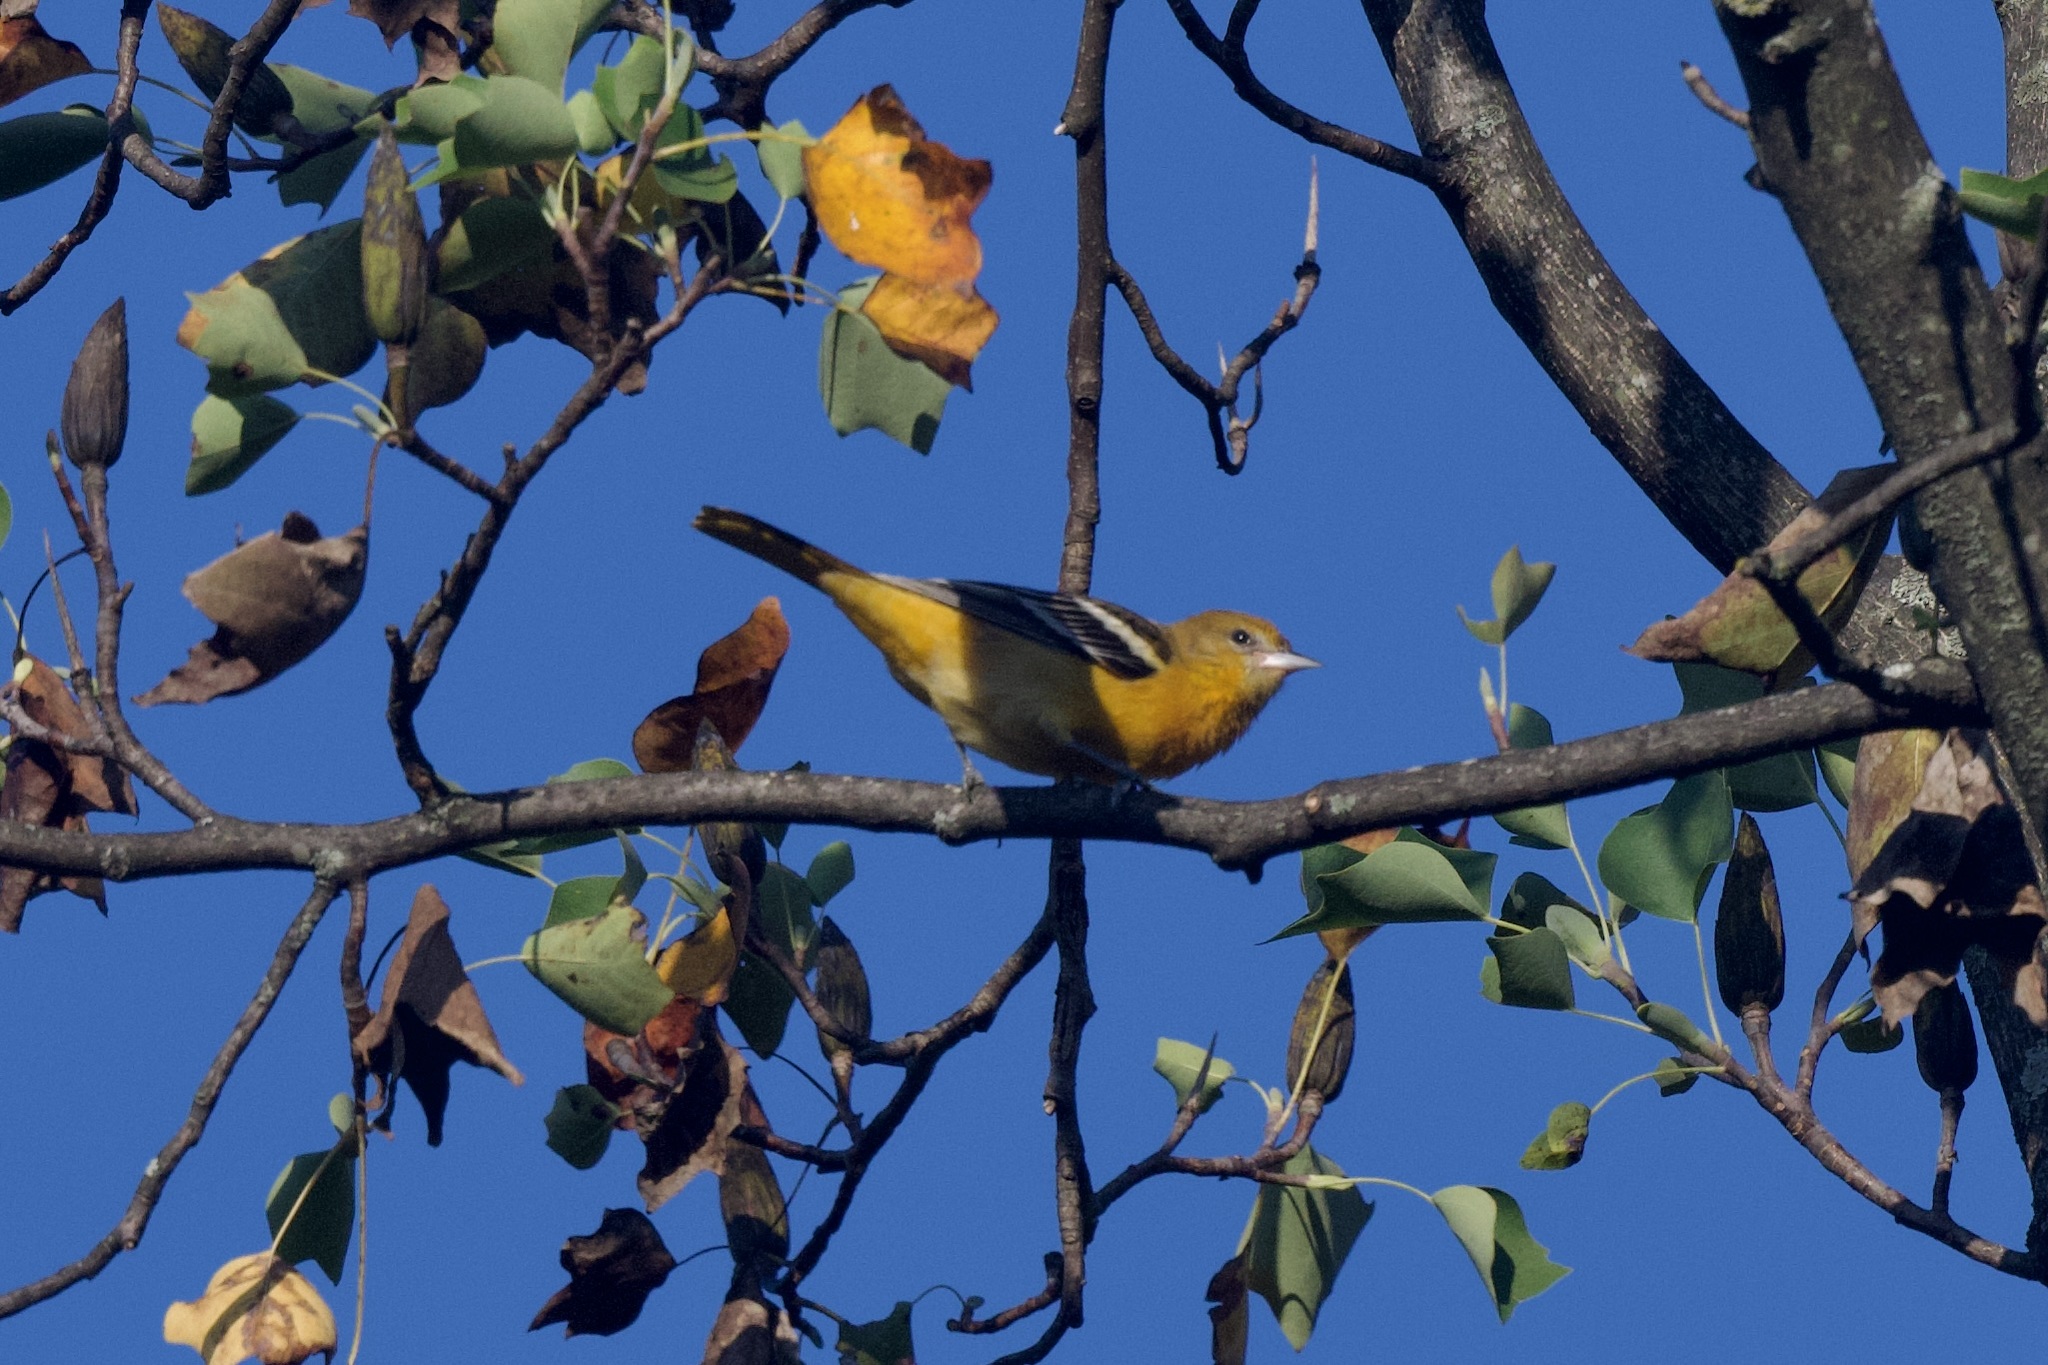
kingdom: Animalia
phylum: Chordata
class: Aves
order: Passeriformes
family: Icteridae
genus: Icterus
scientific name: Icterus galbula
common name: Baltimore oriole
